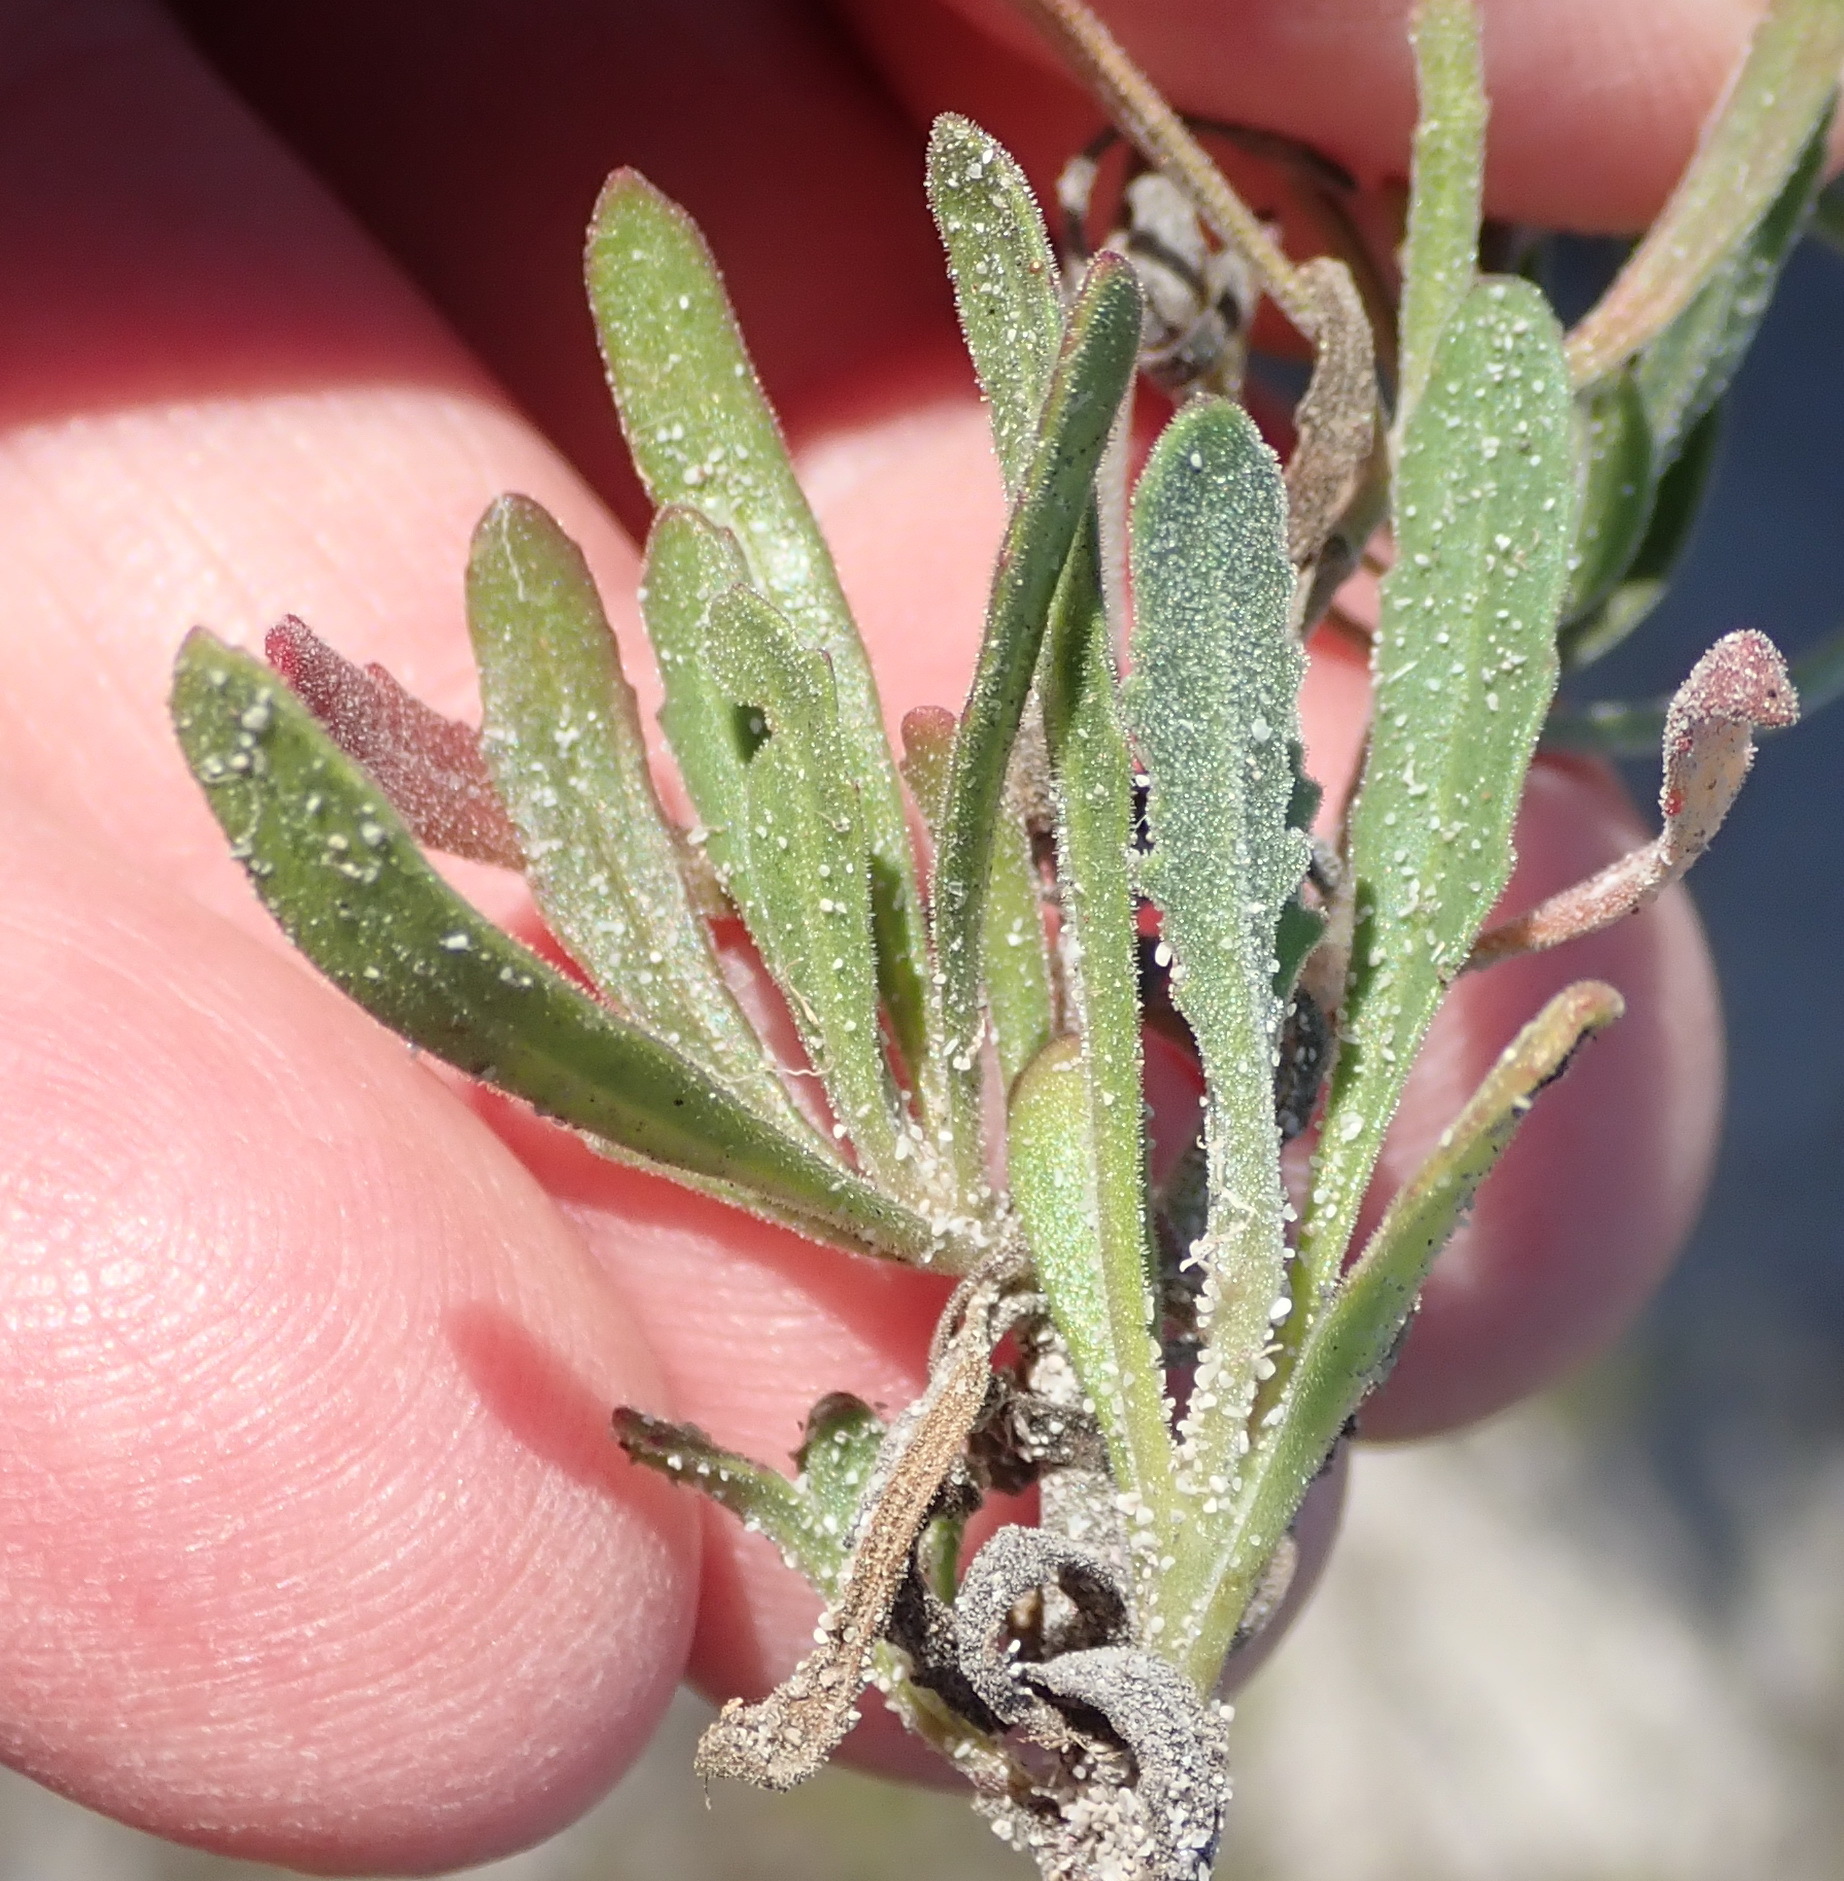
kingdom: Plantae
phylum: Tracheophyta
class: Magnoliopsida
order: Lamiales
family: Scrophulariaceae
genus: Manulea
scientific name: Manulea tomentosa
